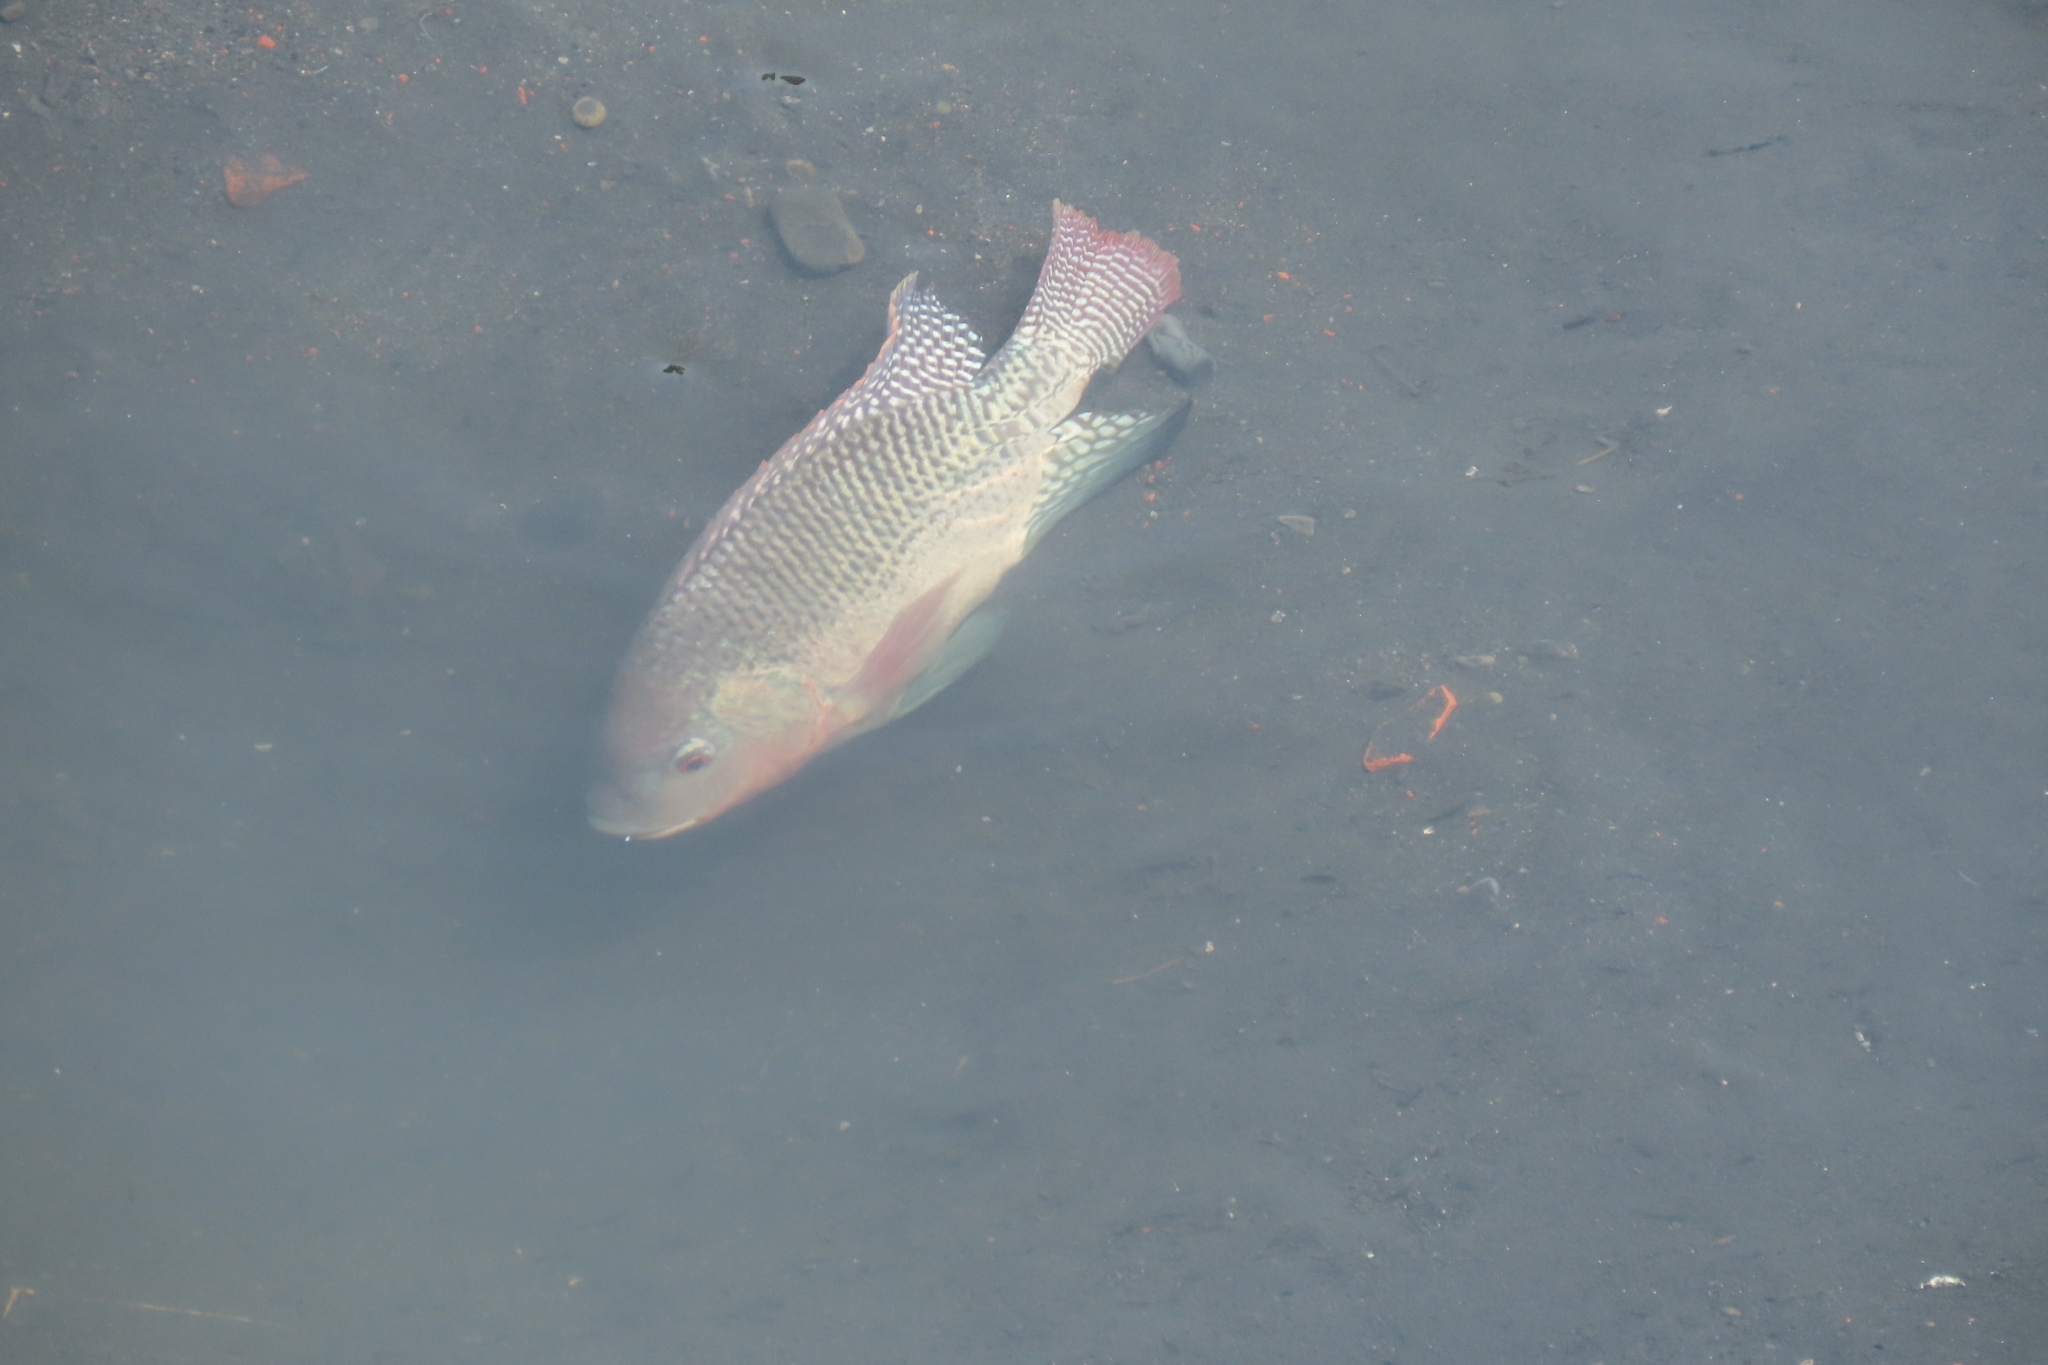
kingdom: Animalia
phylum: Chordata
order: Perciformes
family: Cichlidae
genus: Oreochromis
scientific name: Oreochromis niloticus
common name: Nile tilapia
